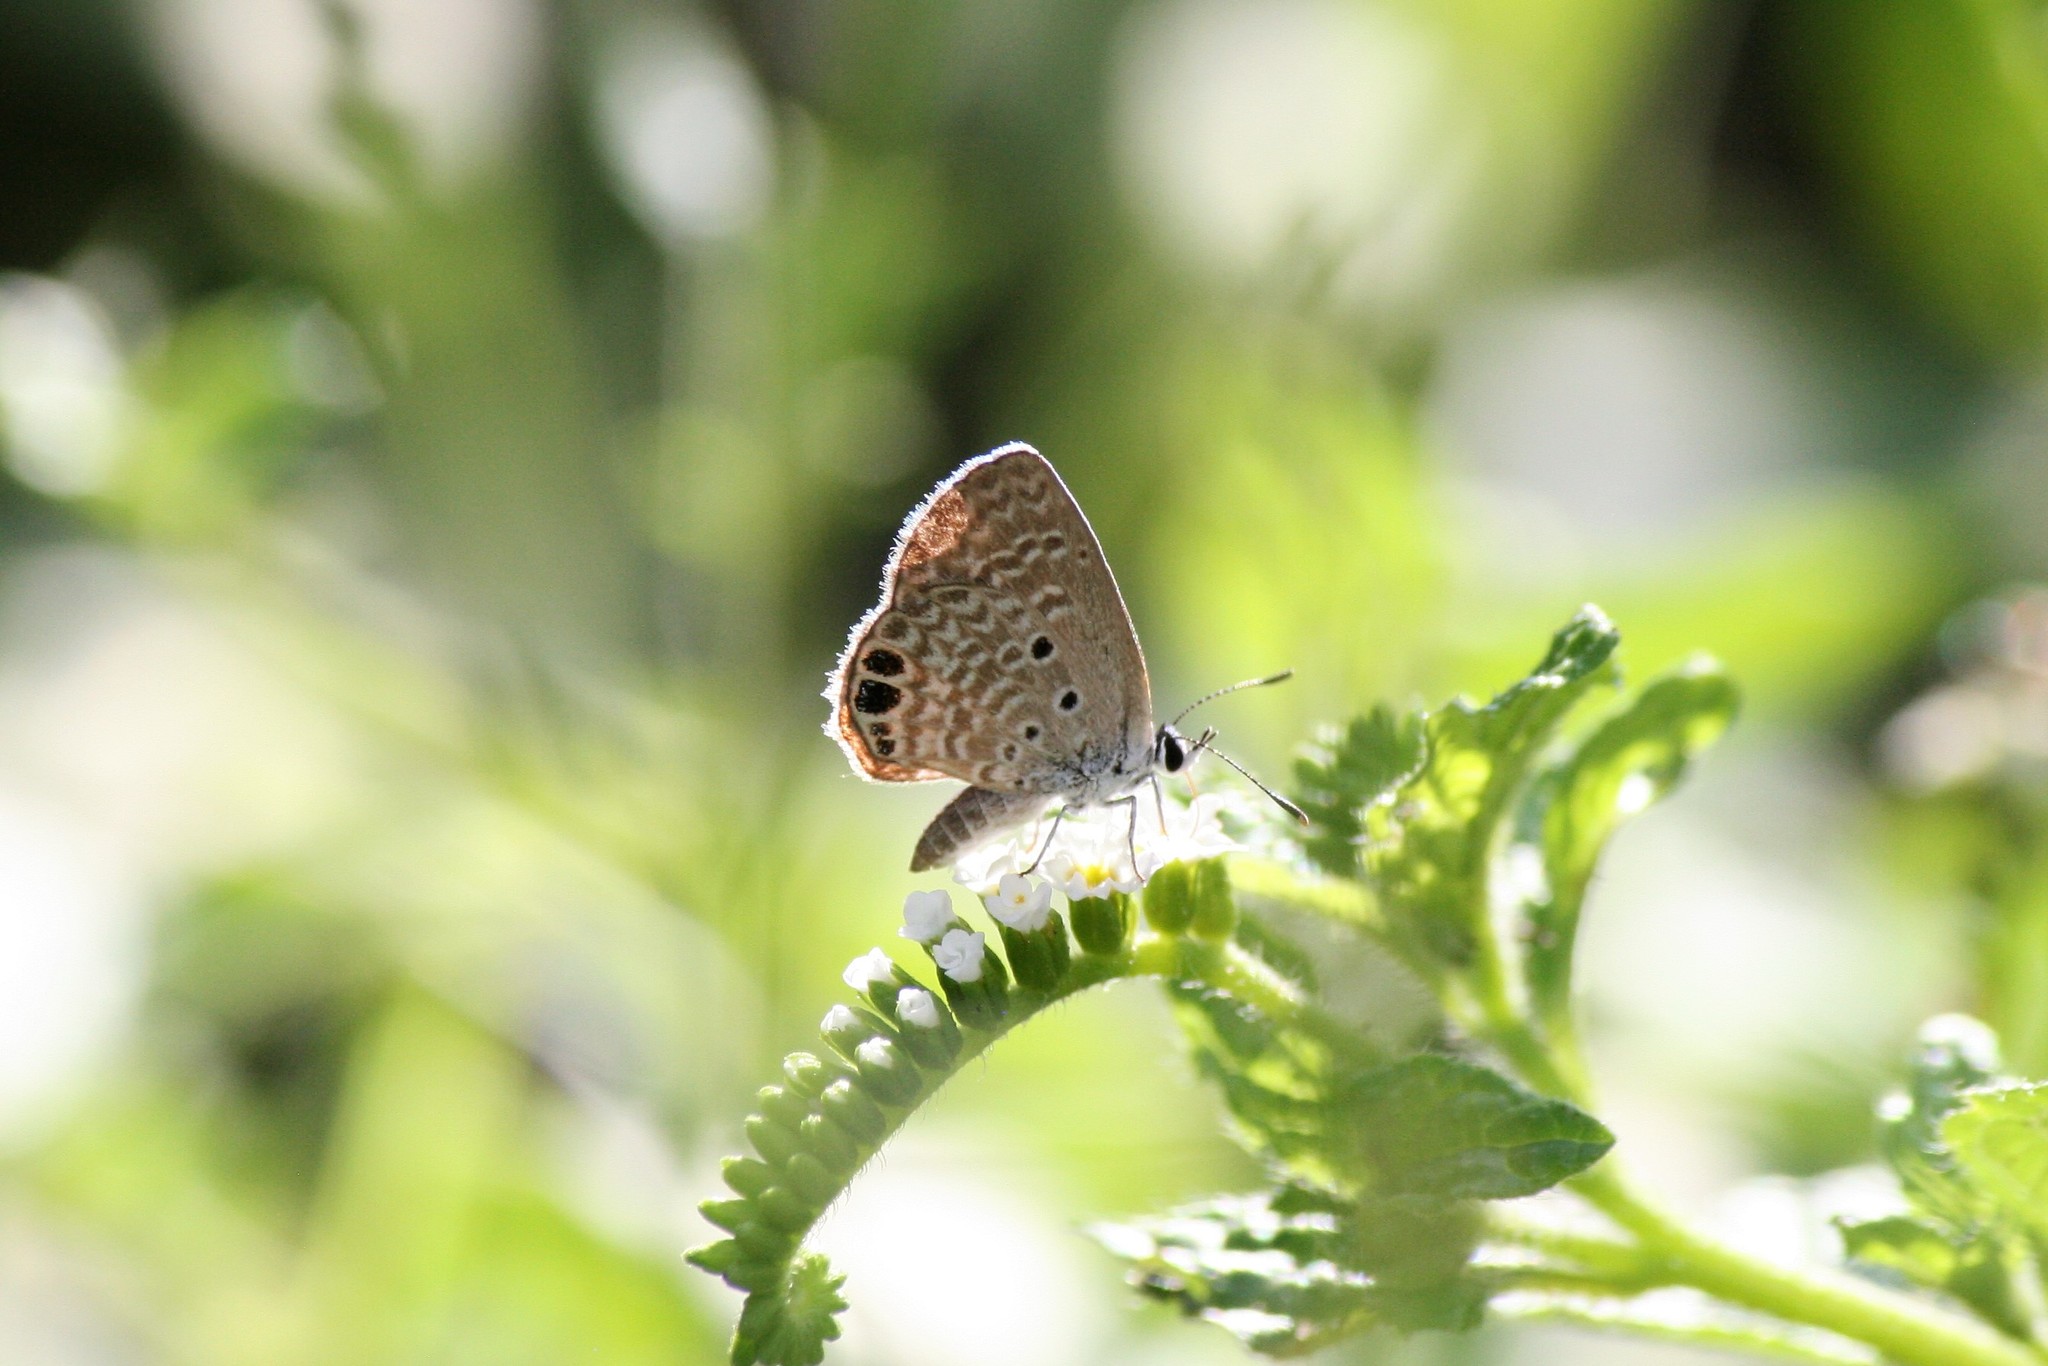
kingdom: Animalia
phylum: Arthropoda
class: Insecta
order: Lepidoptera
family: Lycaenidae
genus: Hemiargus
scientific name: Hemiargus ceraunus
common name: Ceraunus blue
